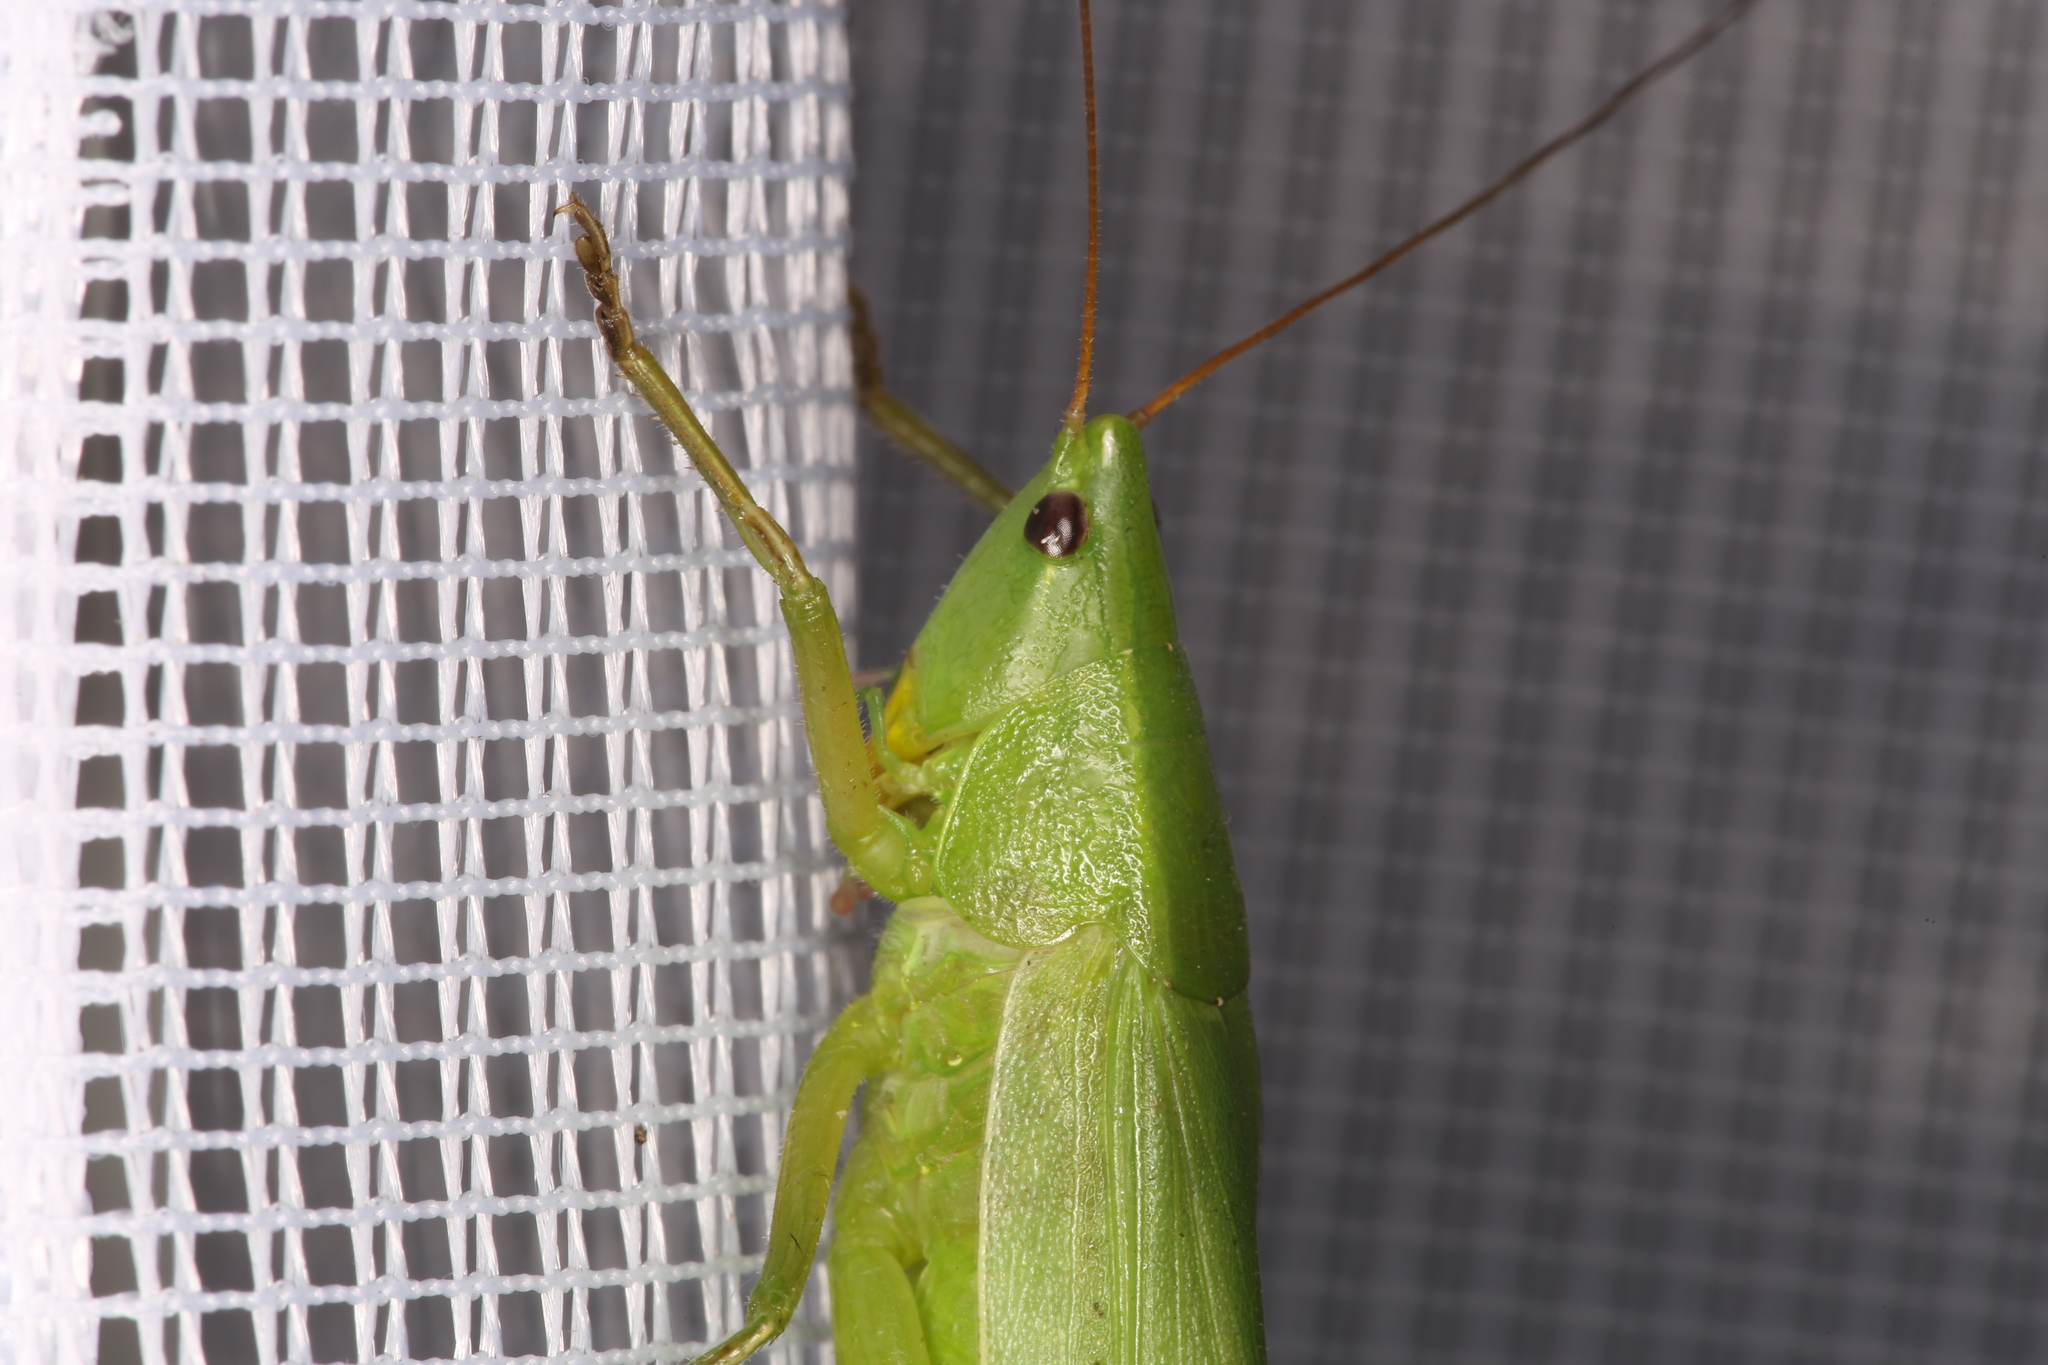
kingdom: Animalia
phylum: Arthropoda
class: Insecta
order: Orthoptera
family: Tettigoniidae
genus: Ruspolia
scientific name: Ruspolia nitidula
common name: Large conehead
